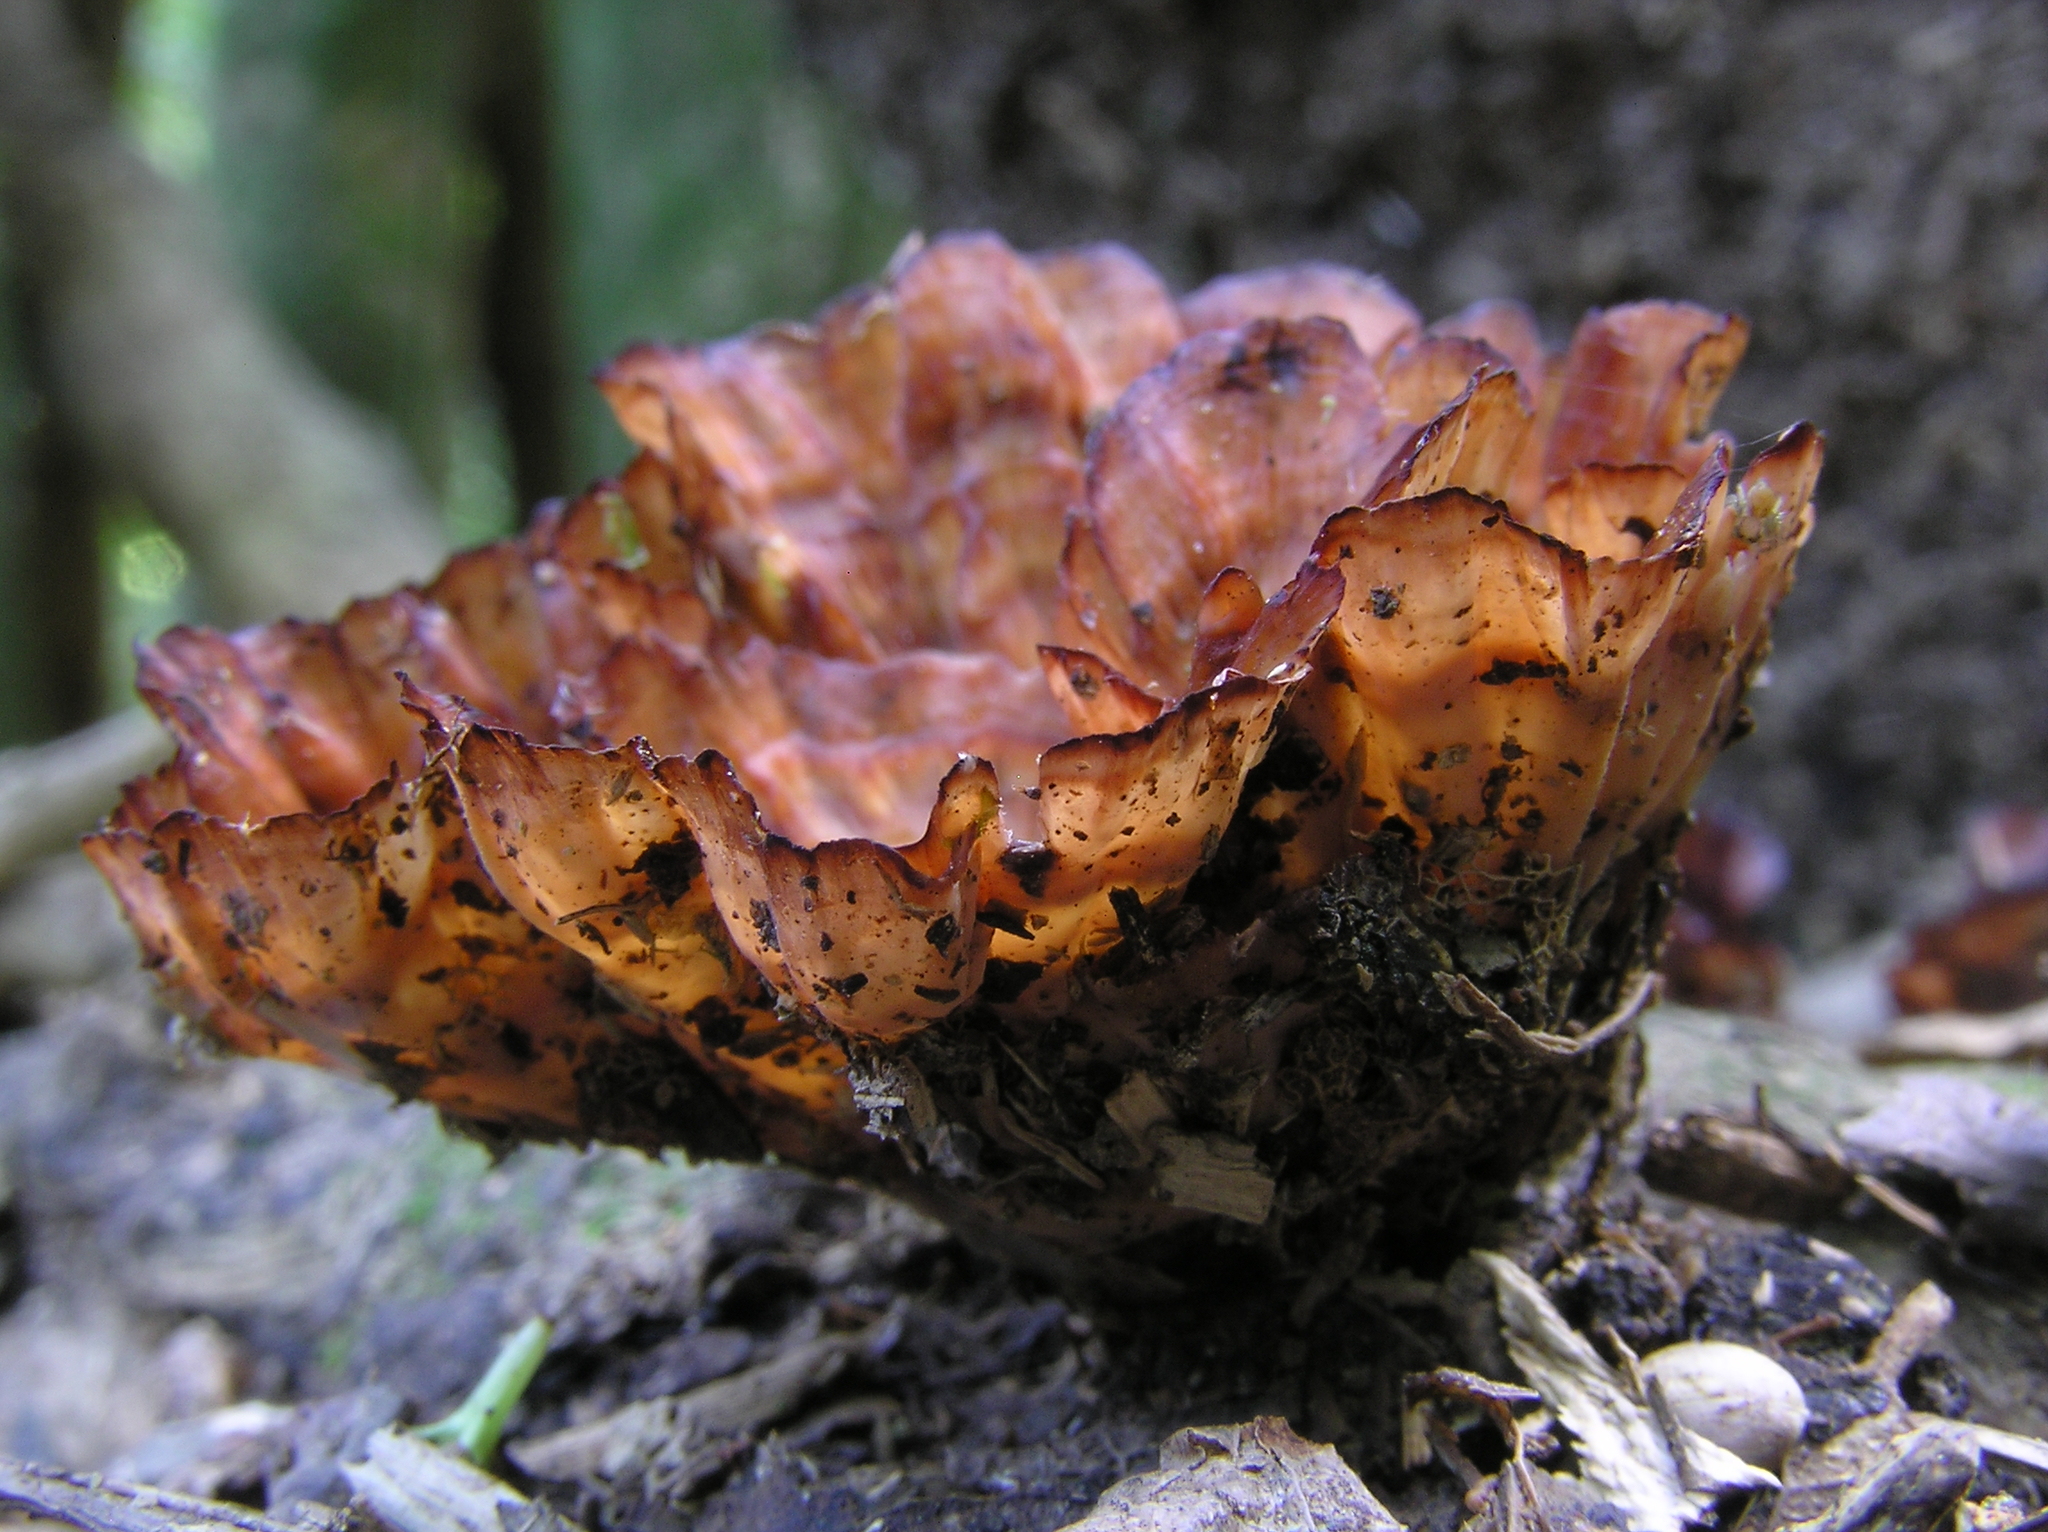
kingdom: Fungi
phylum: Basidiomycota
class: Agaricomycetes
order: Polyporales
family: Podoscyphaceae
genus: Podoscypha
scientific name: Podoscypha petalodes
